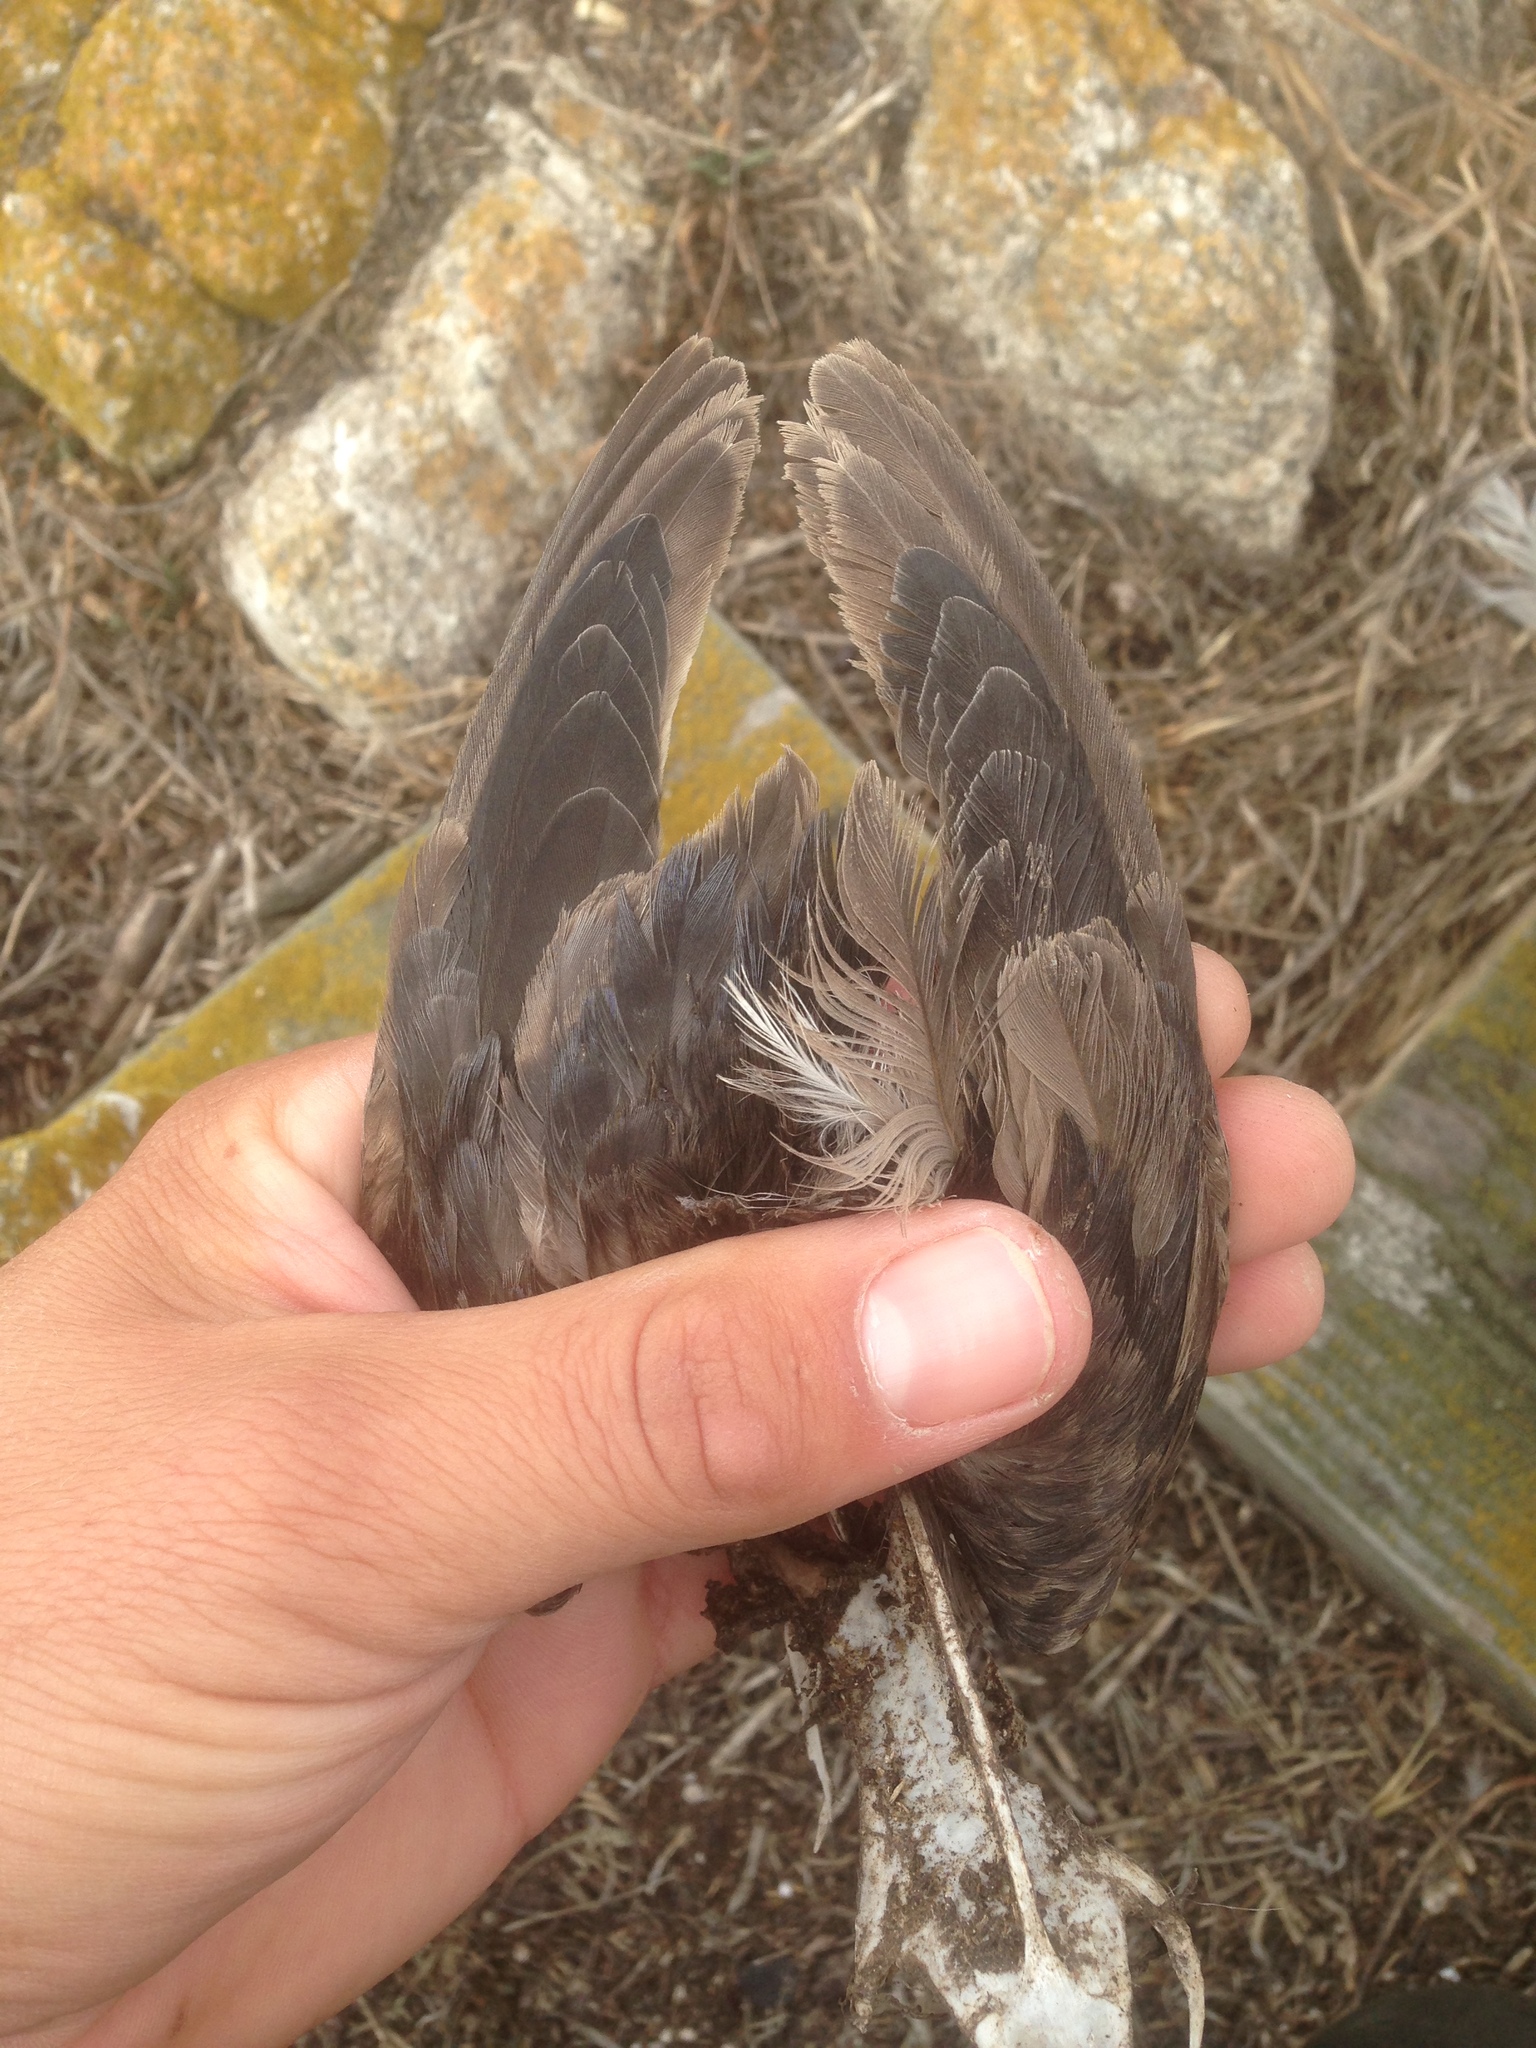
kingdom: Animalia
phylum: Chordata
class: Aves
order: Charadriiformes
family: Alcidae
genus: Ptychoramphus
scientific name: Ptychoramphus aleuticus
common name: Cassin's auklet
